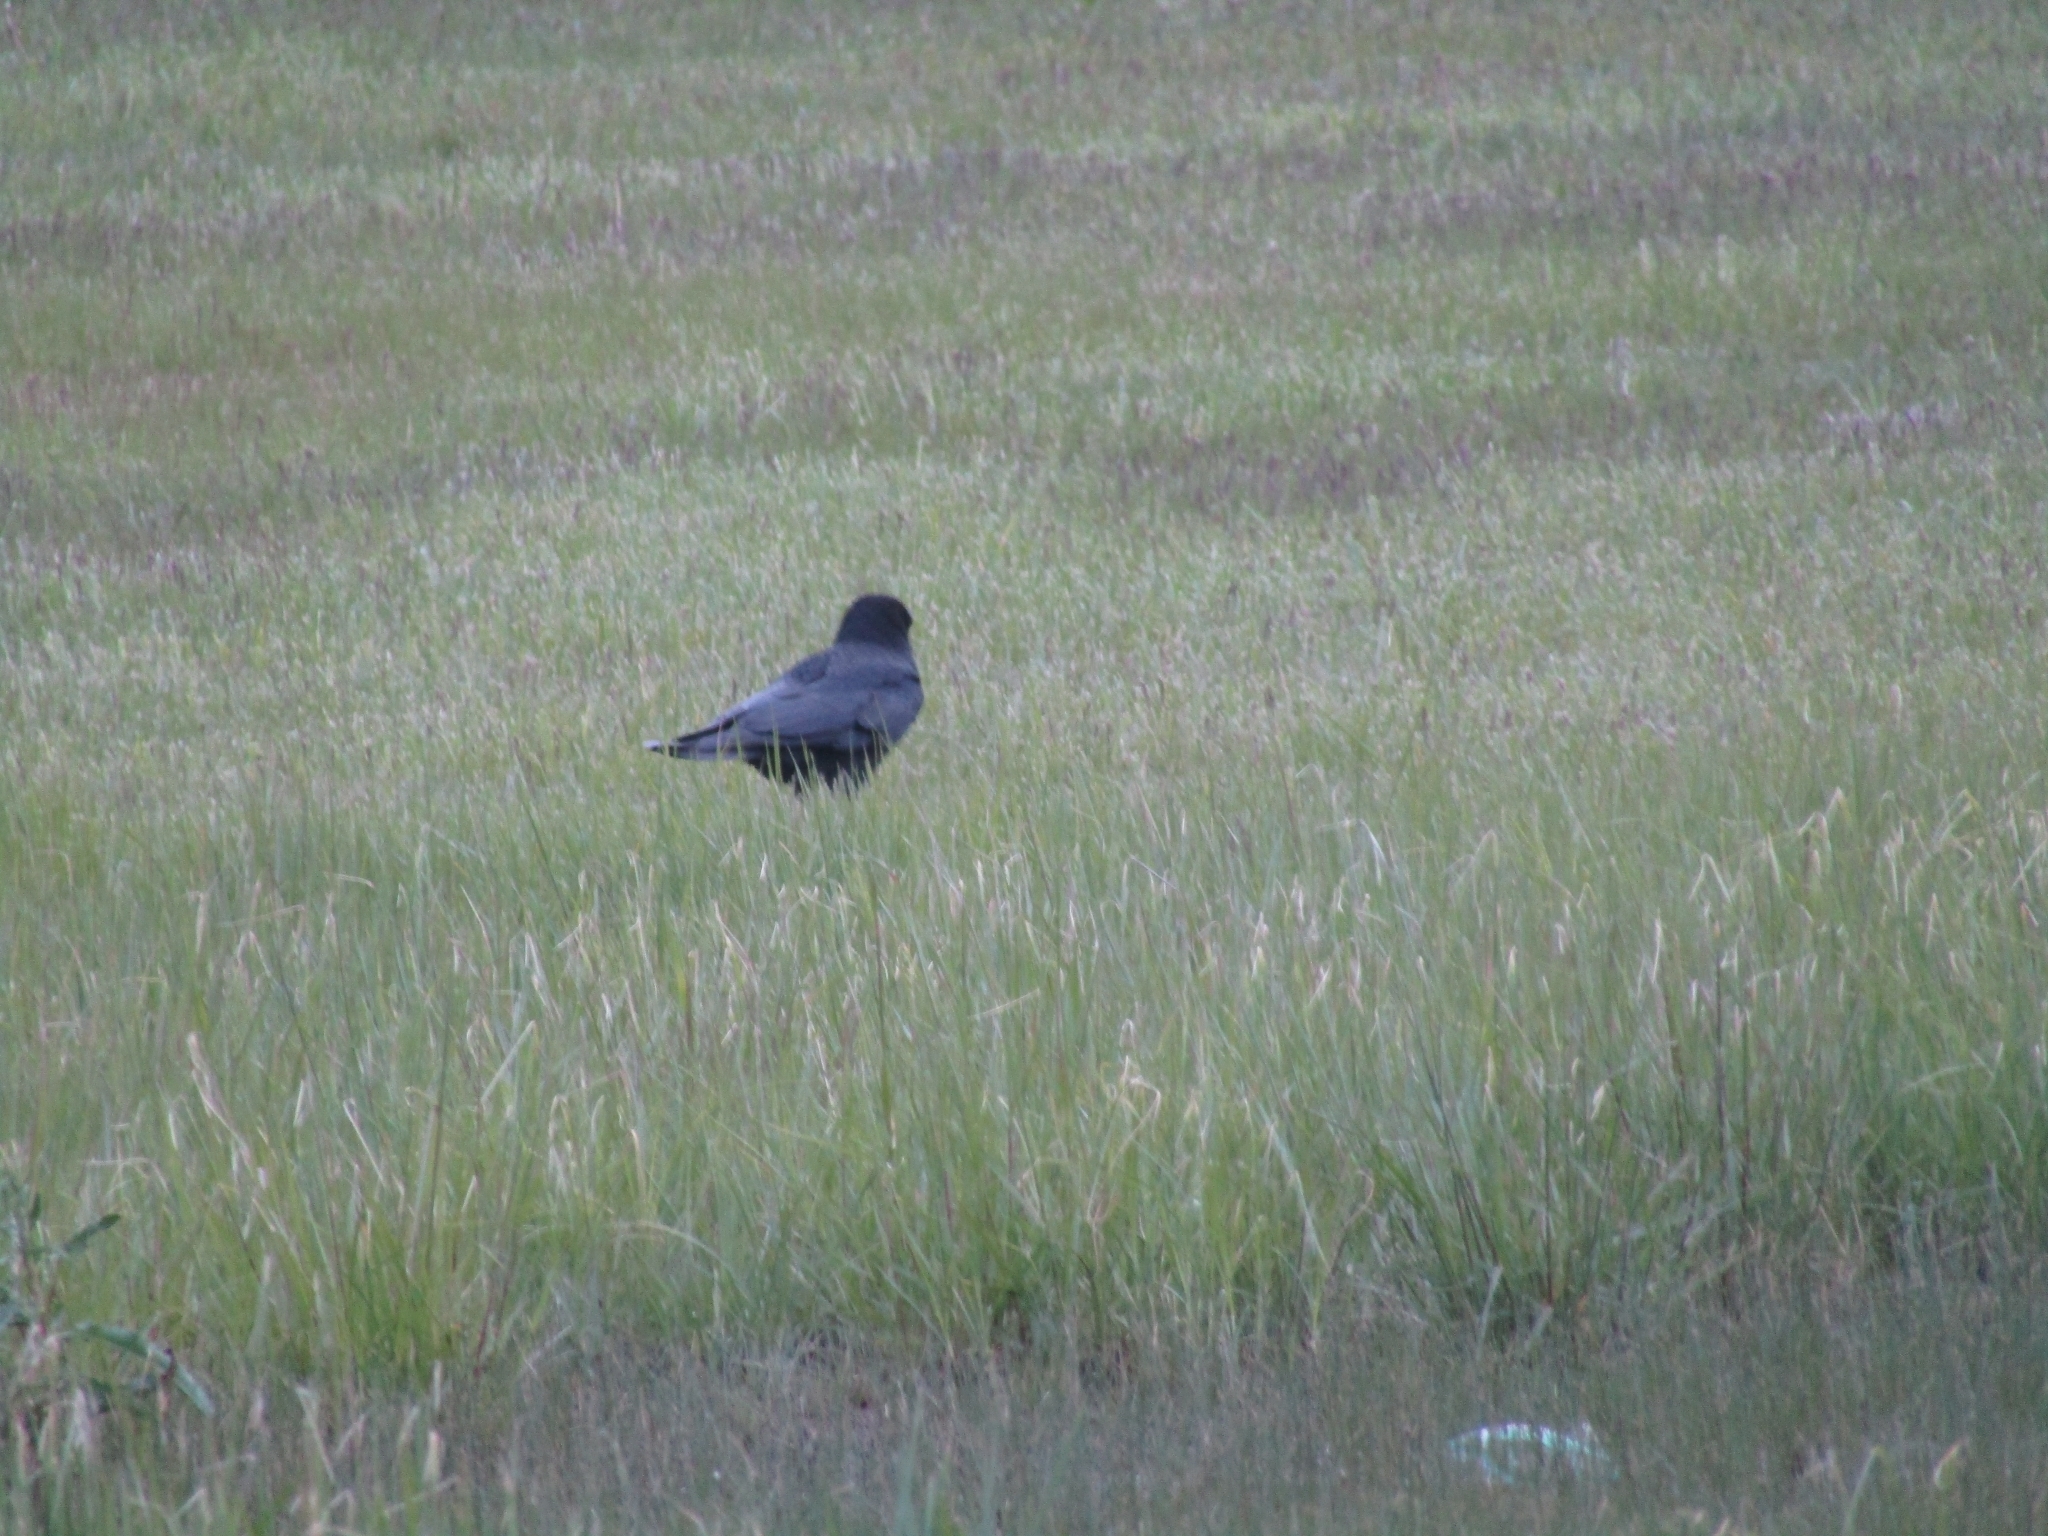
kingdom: Animalia
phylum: Chordata
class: Aves
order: Passeriformes
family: Corvidae
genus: Corvus
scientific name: Corvus brachyrhynchos
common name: American crow
